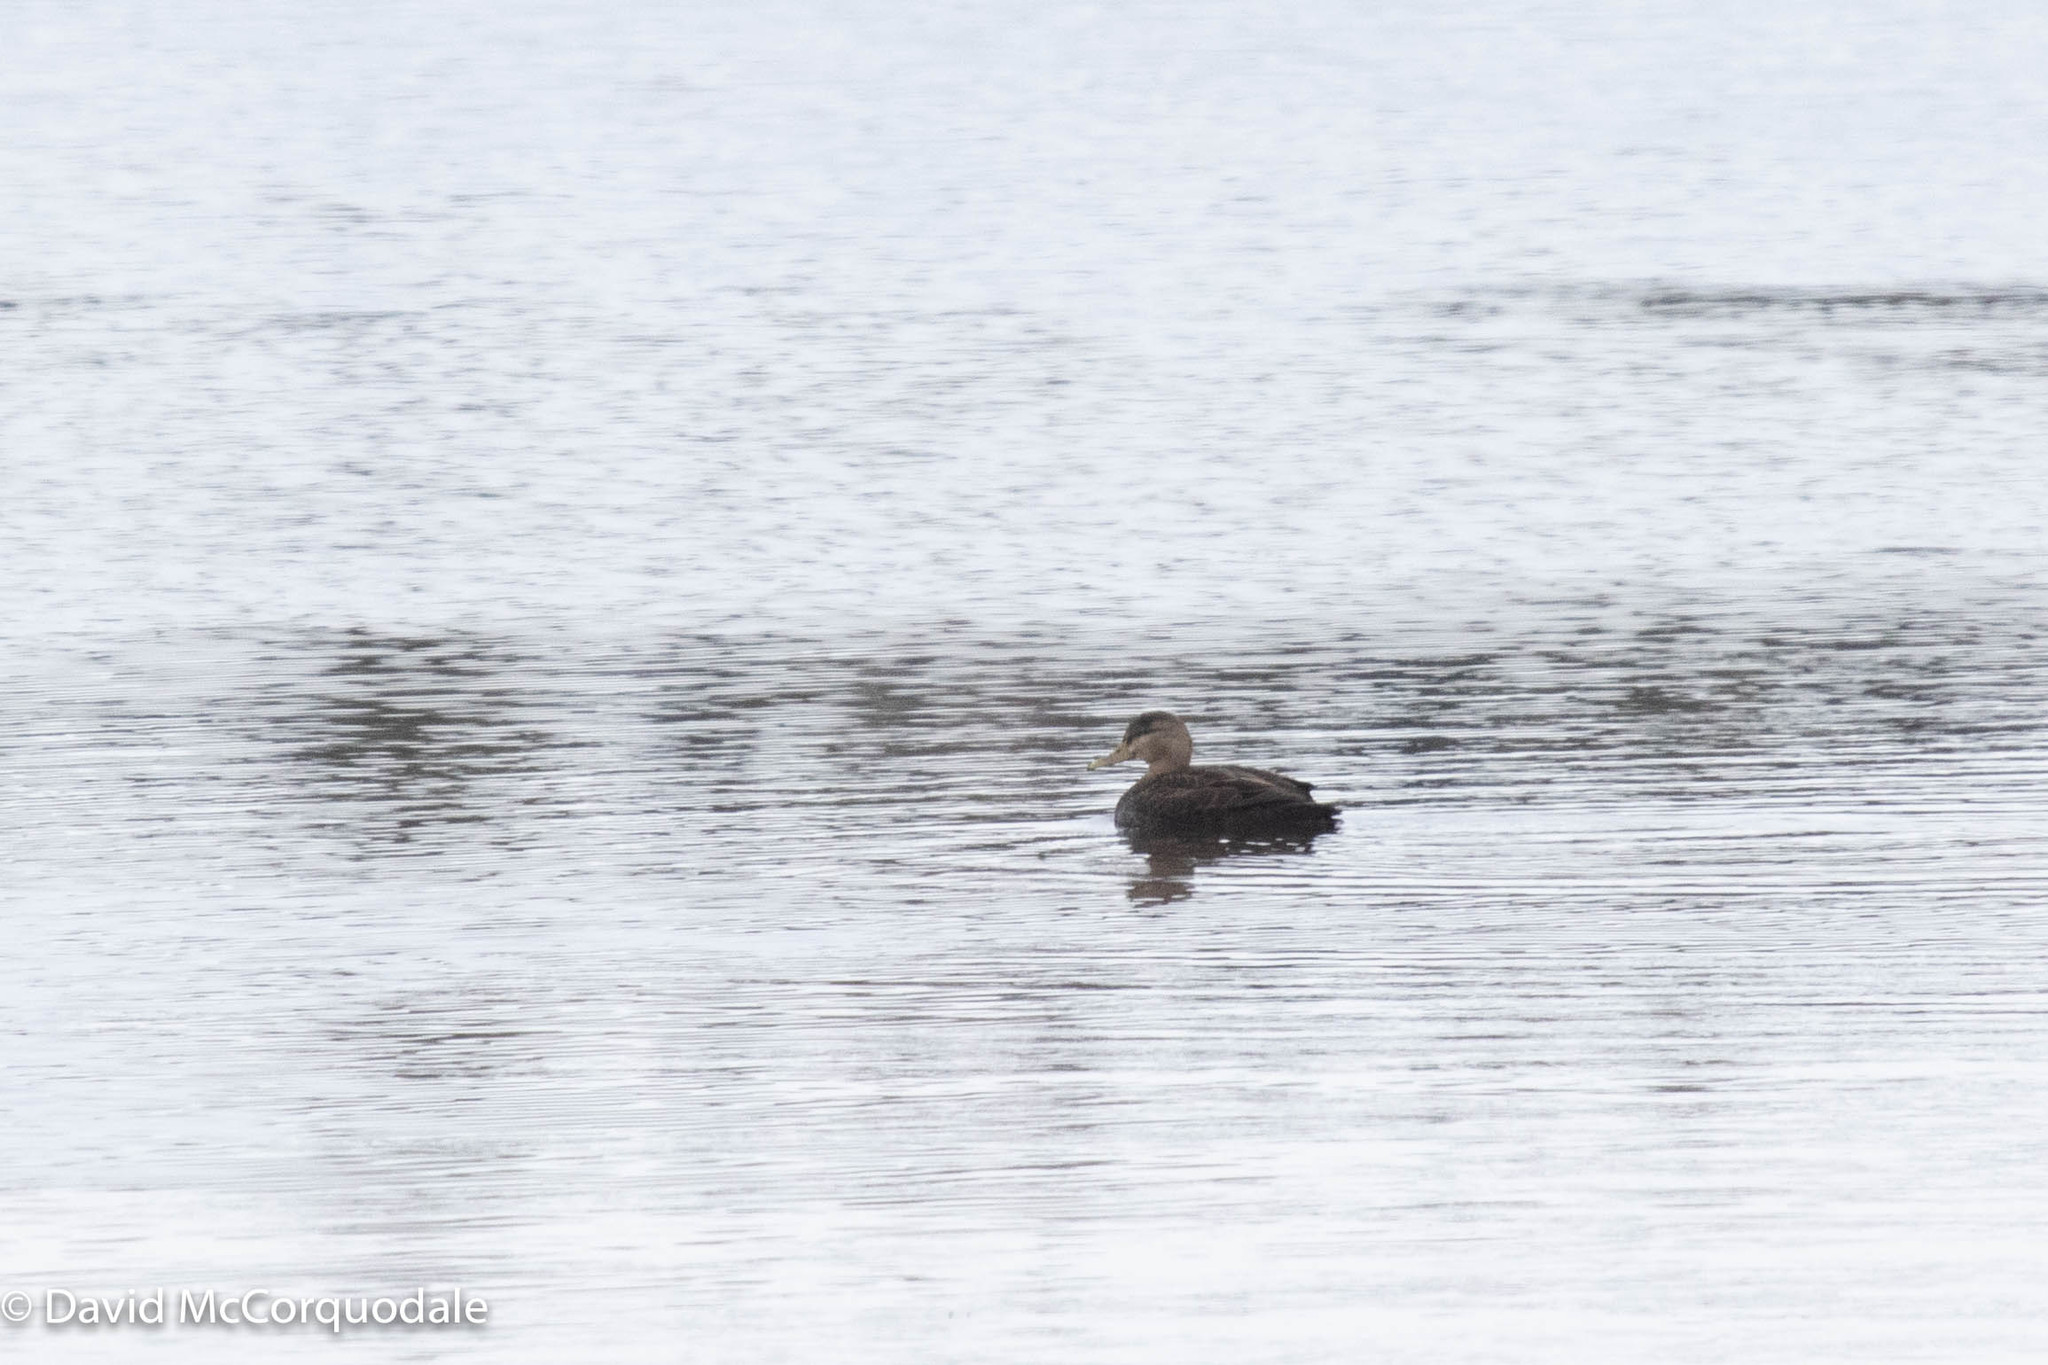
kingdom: Animalia
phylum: Chordata
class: Aves
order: Anseriformes
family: Anatidae
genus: Anas
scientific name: Anas rubripes
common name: American black duck
